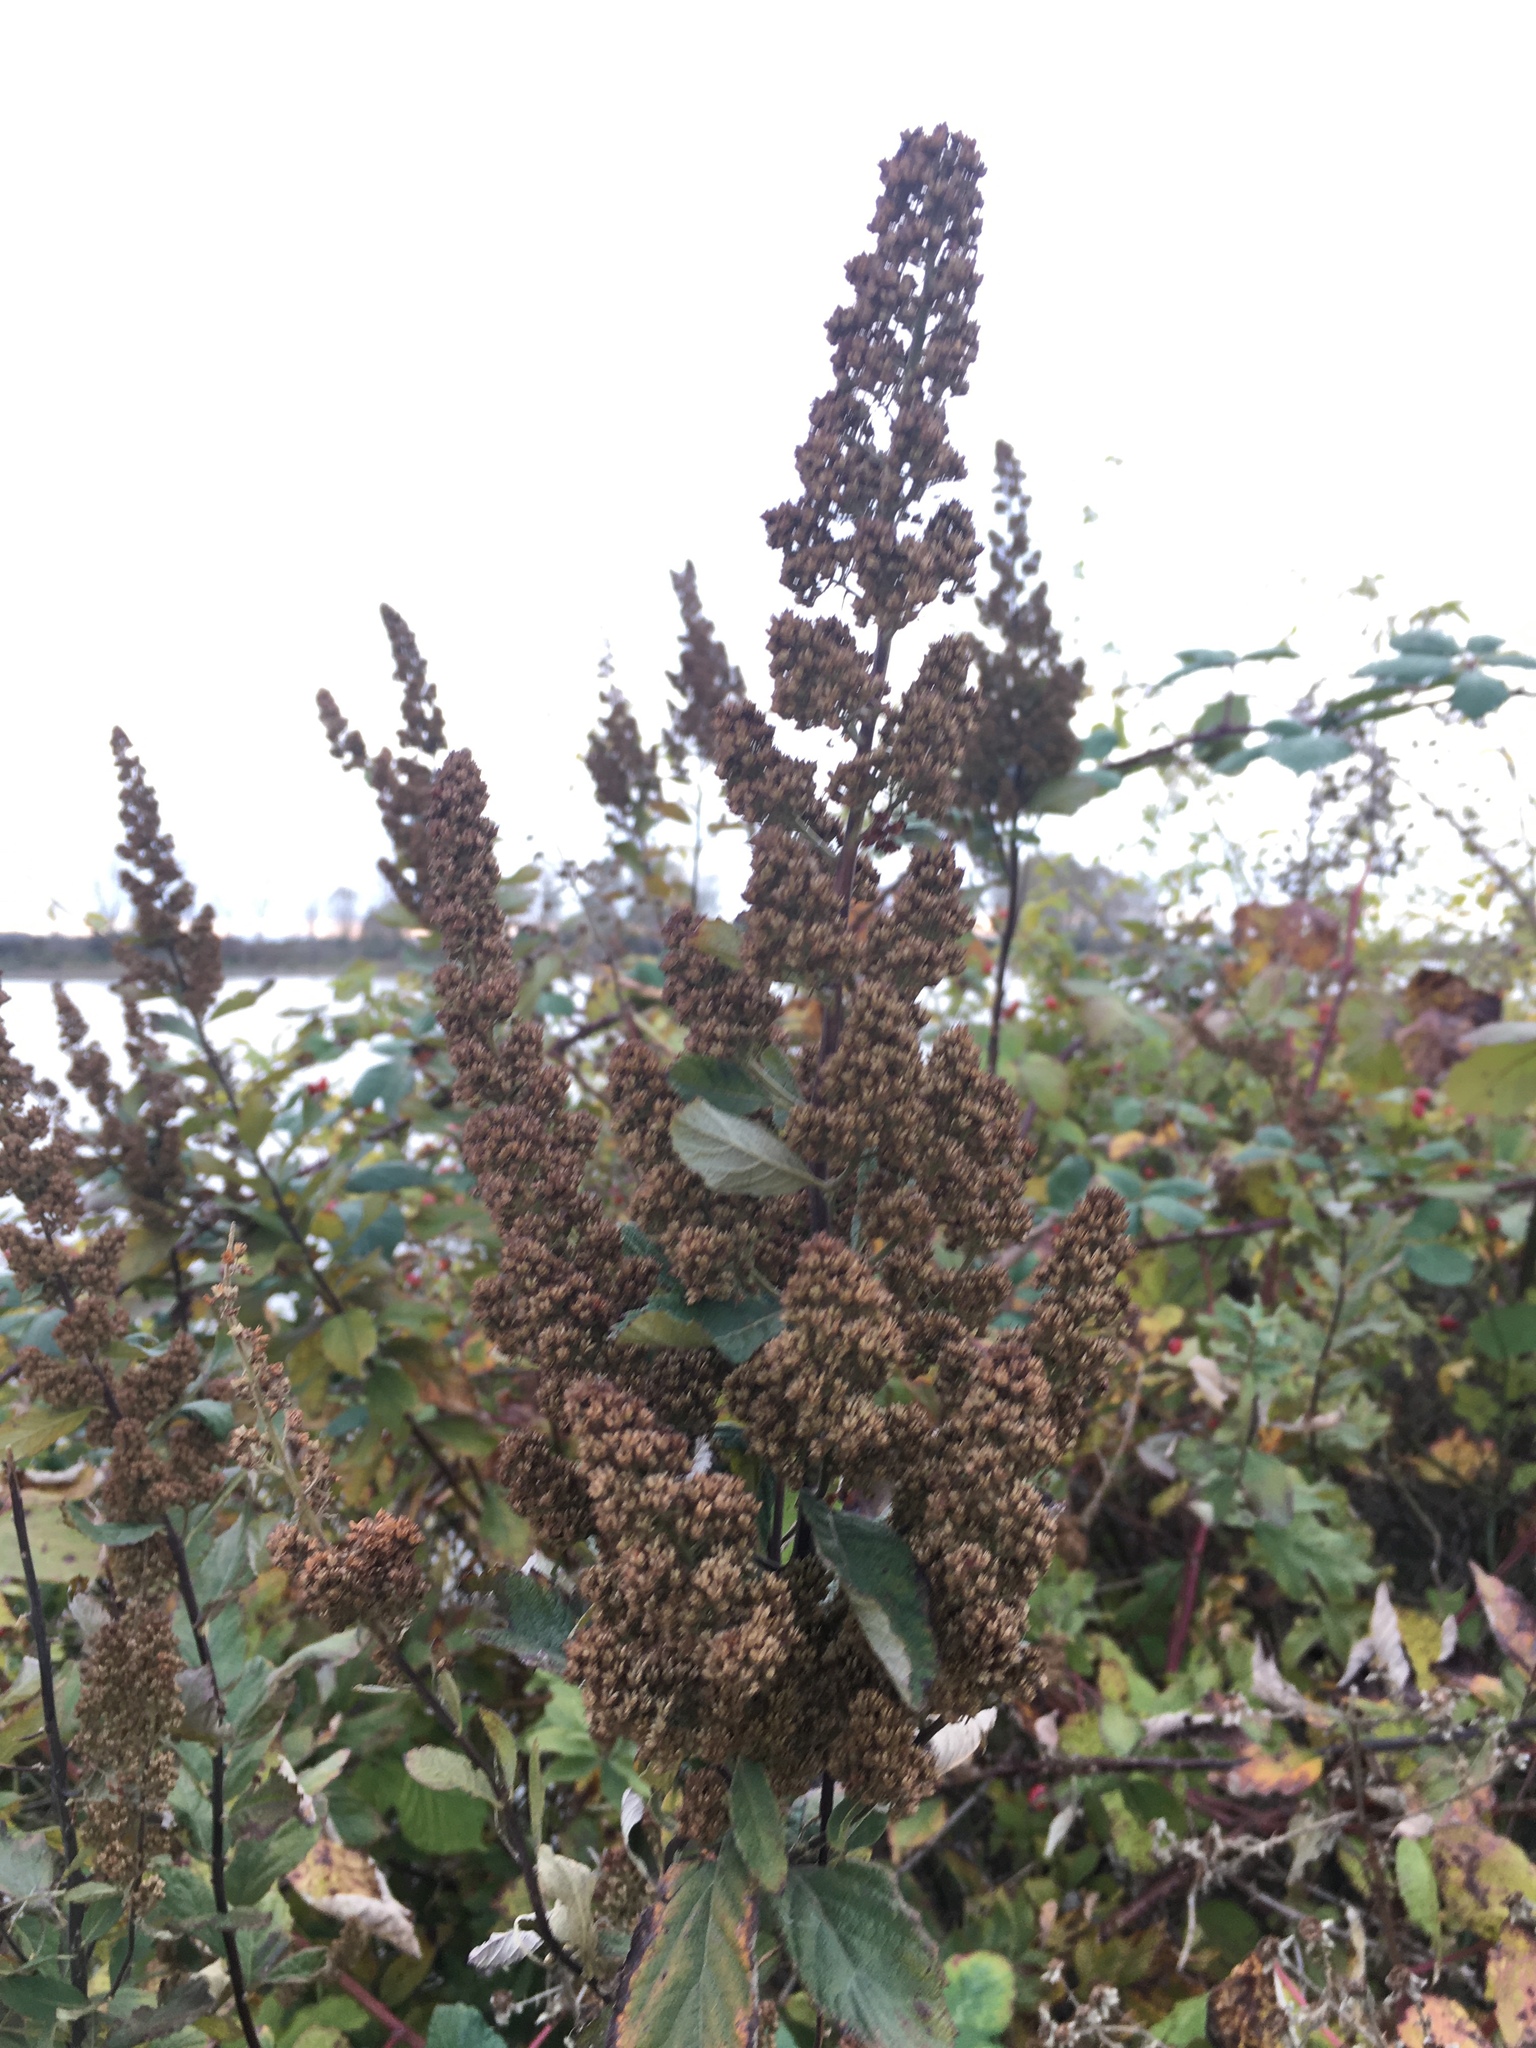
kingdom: Plantae
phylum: Tracheophyta
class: Magnoliopsida
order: Rosales
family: Rosaceae
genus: Spiraea
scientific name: Spiraea douglasii
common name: Steeplebush
